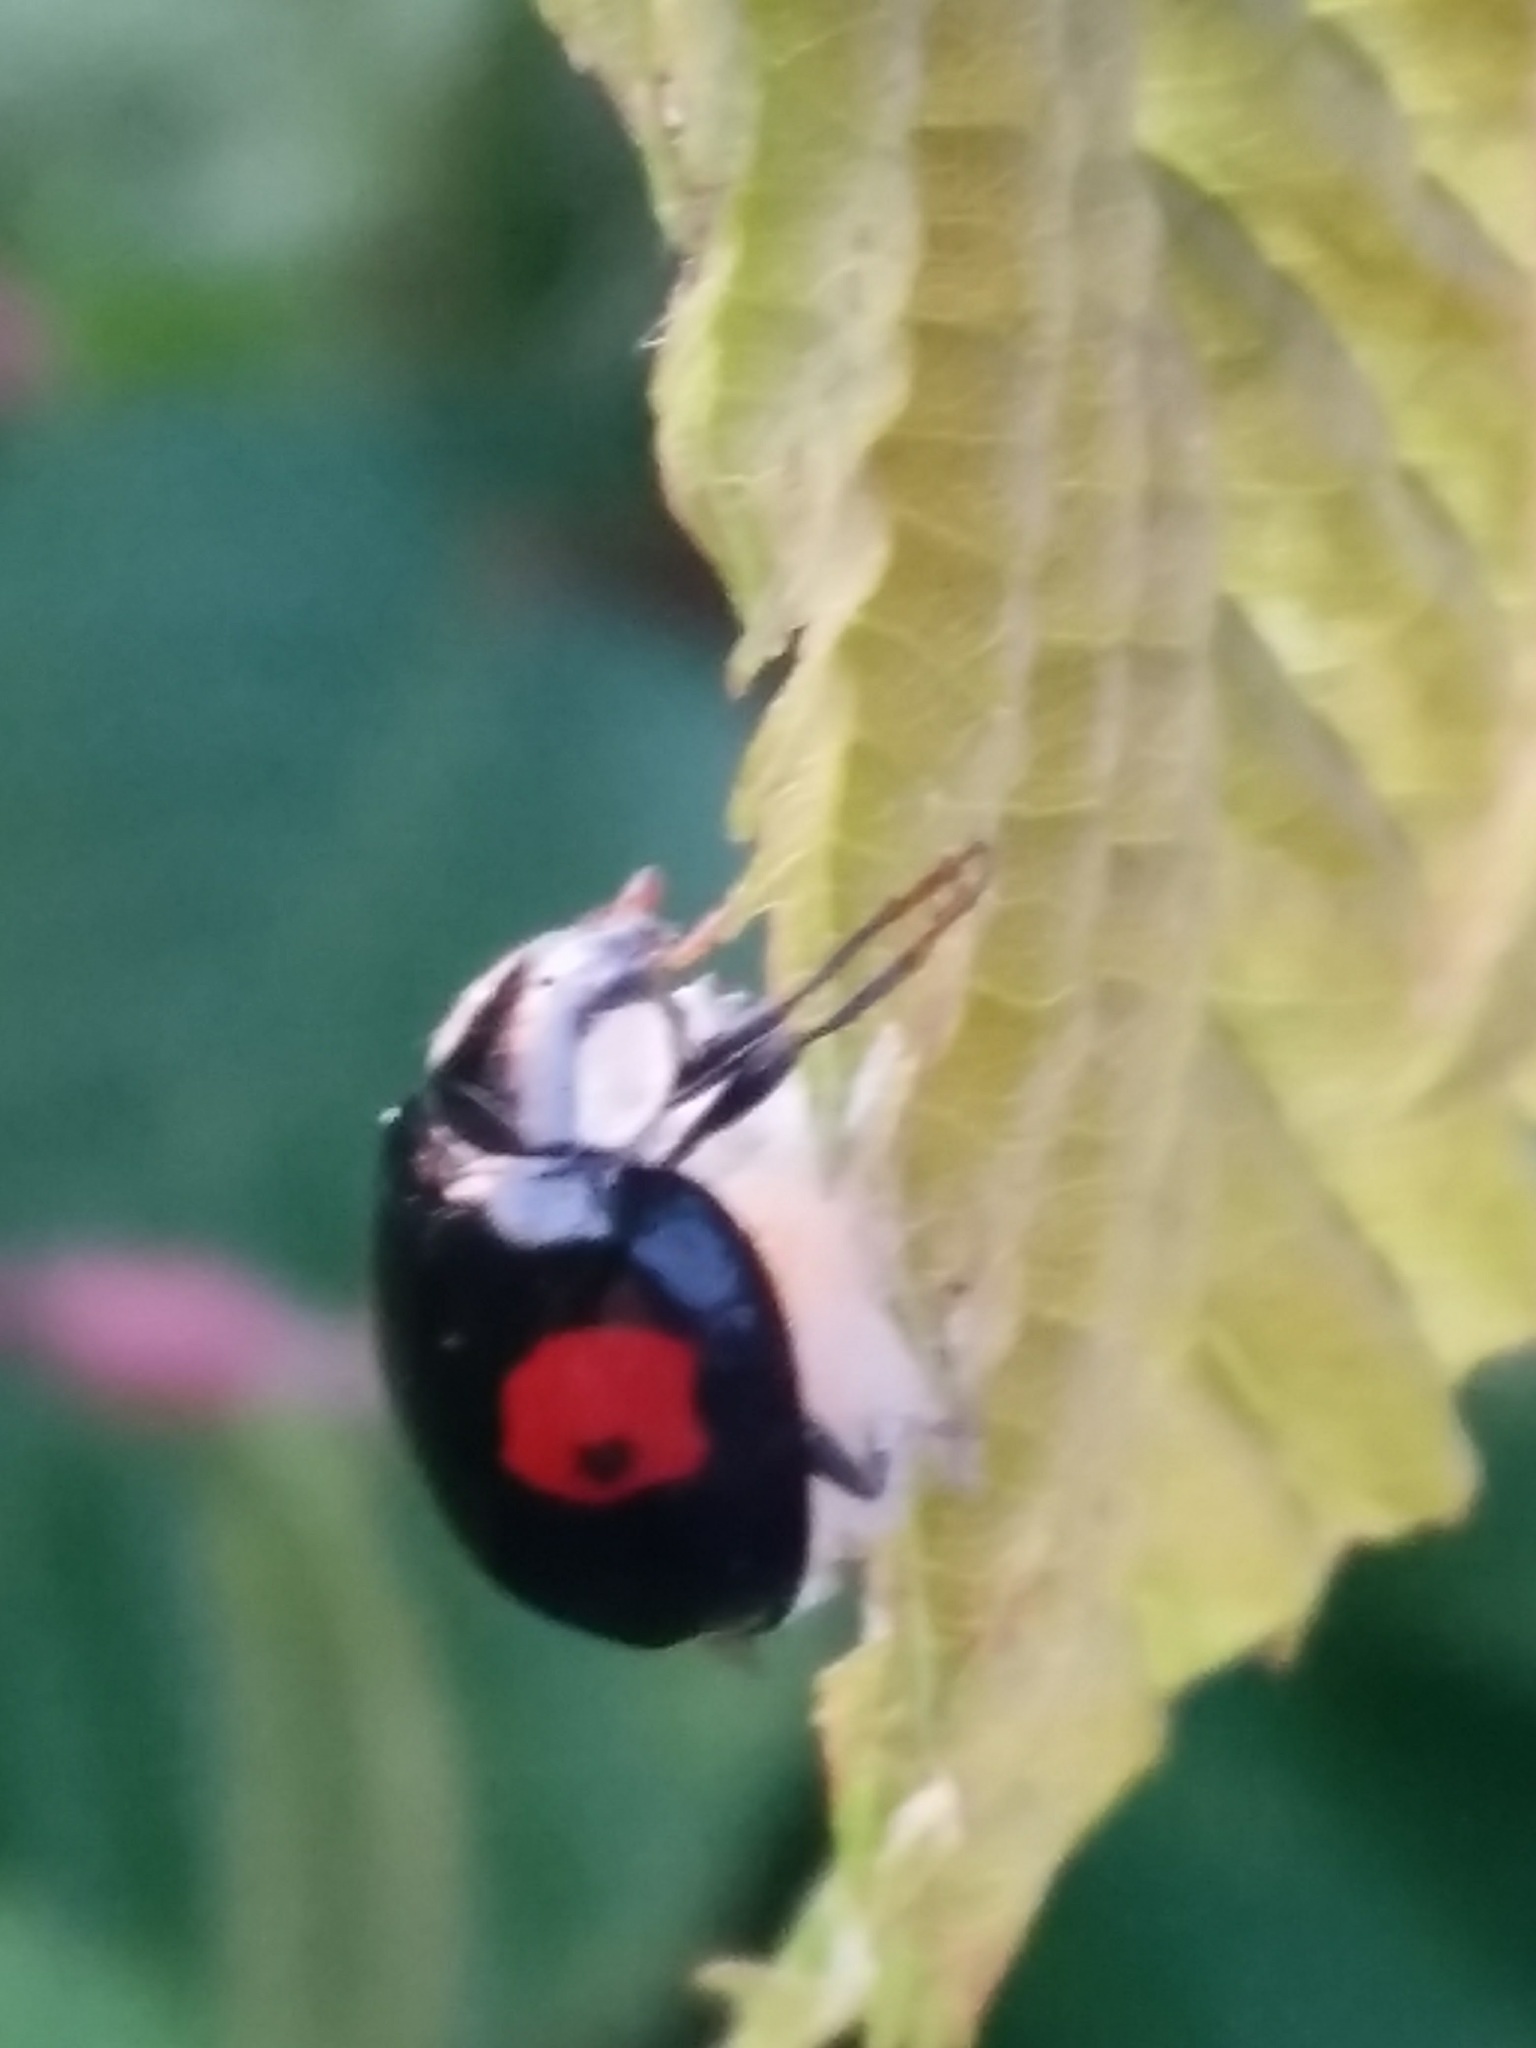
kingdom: Animalia
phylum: Arthropoda
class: Insecta
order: Coleoptera
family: Coccinellidae
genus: Harmonia
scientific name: Harmonia axyridis
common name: Harlequin ladybird
